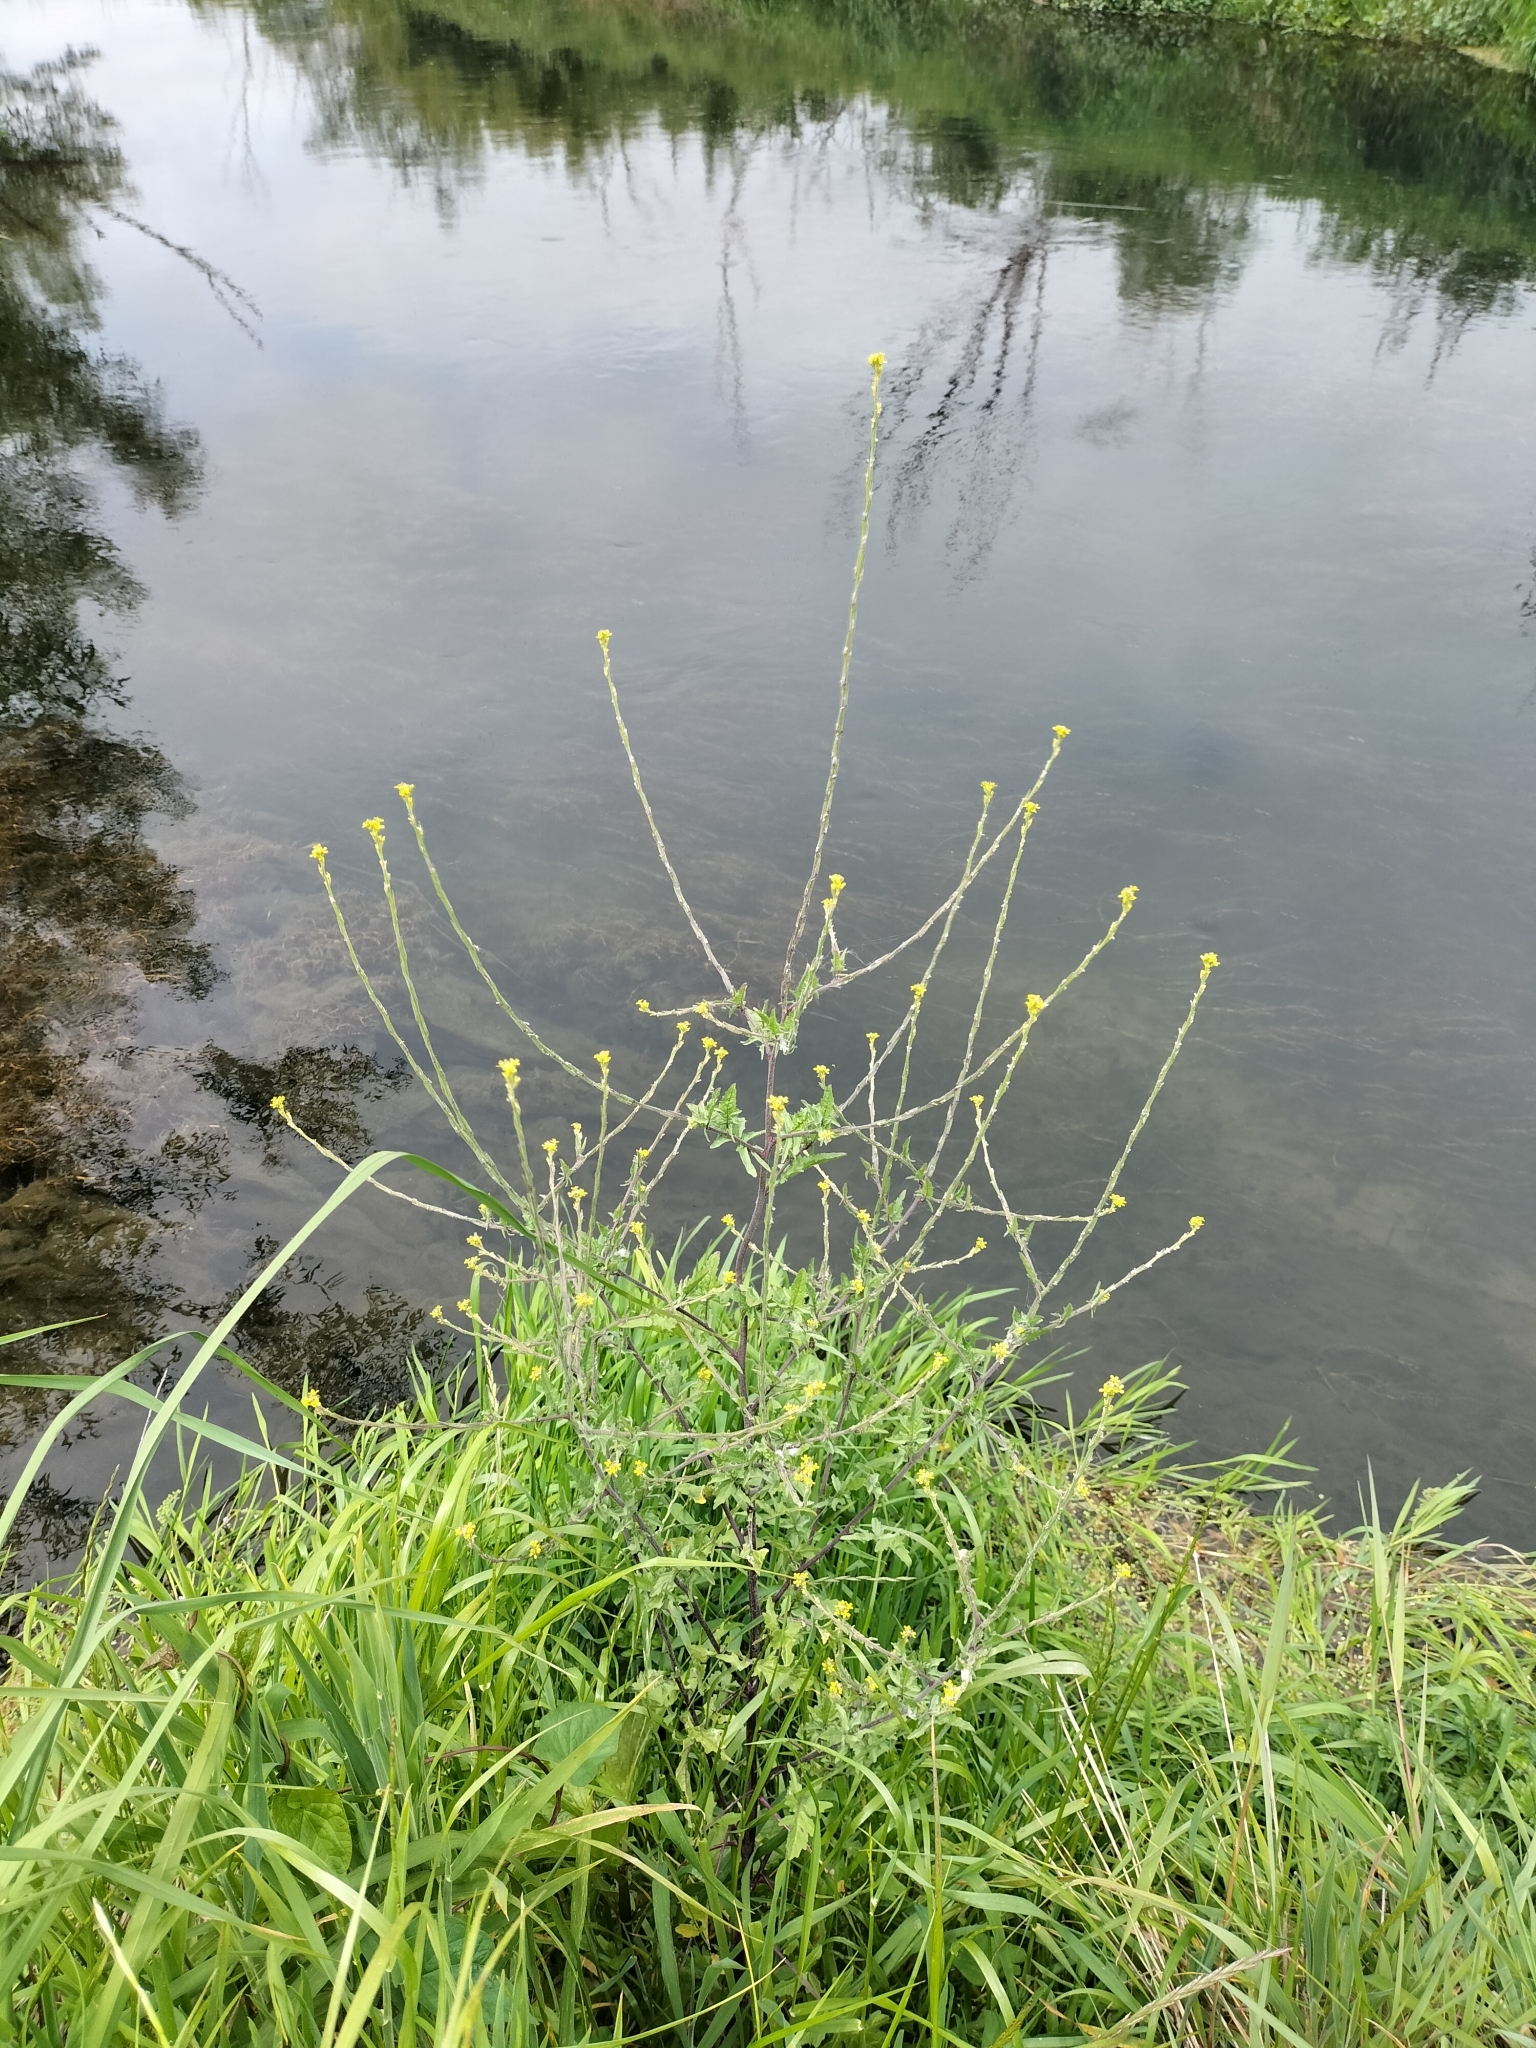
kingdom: Plantae
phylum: Tracheophyta
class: Magnoliopsida
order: Brassicales
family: Brassicaceae
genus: Sisymbrium
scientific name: Sisymbrium officinale
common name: Hedge mustard
